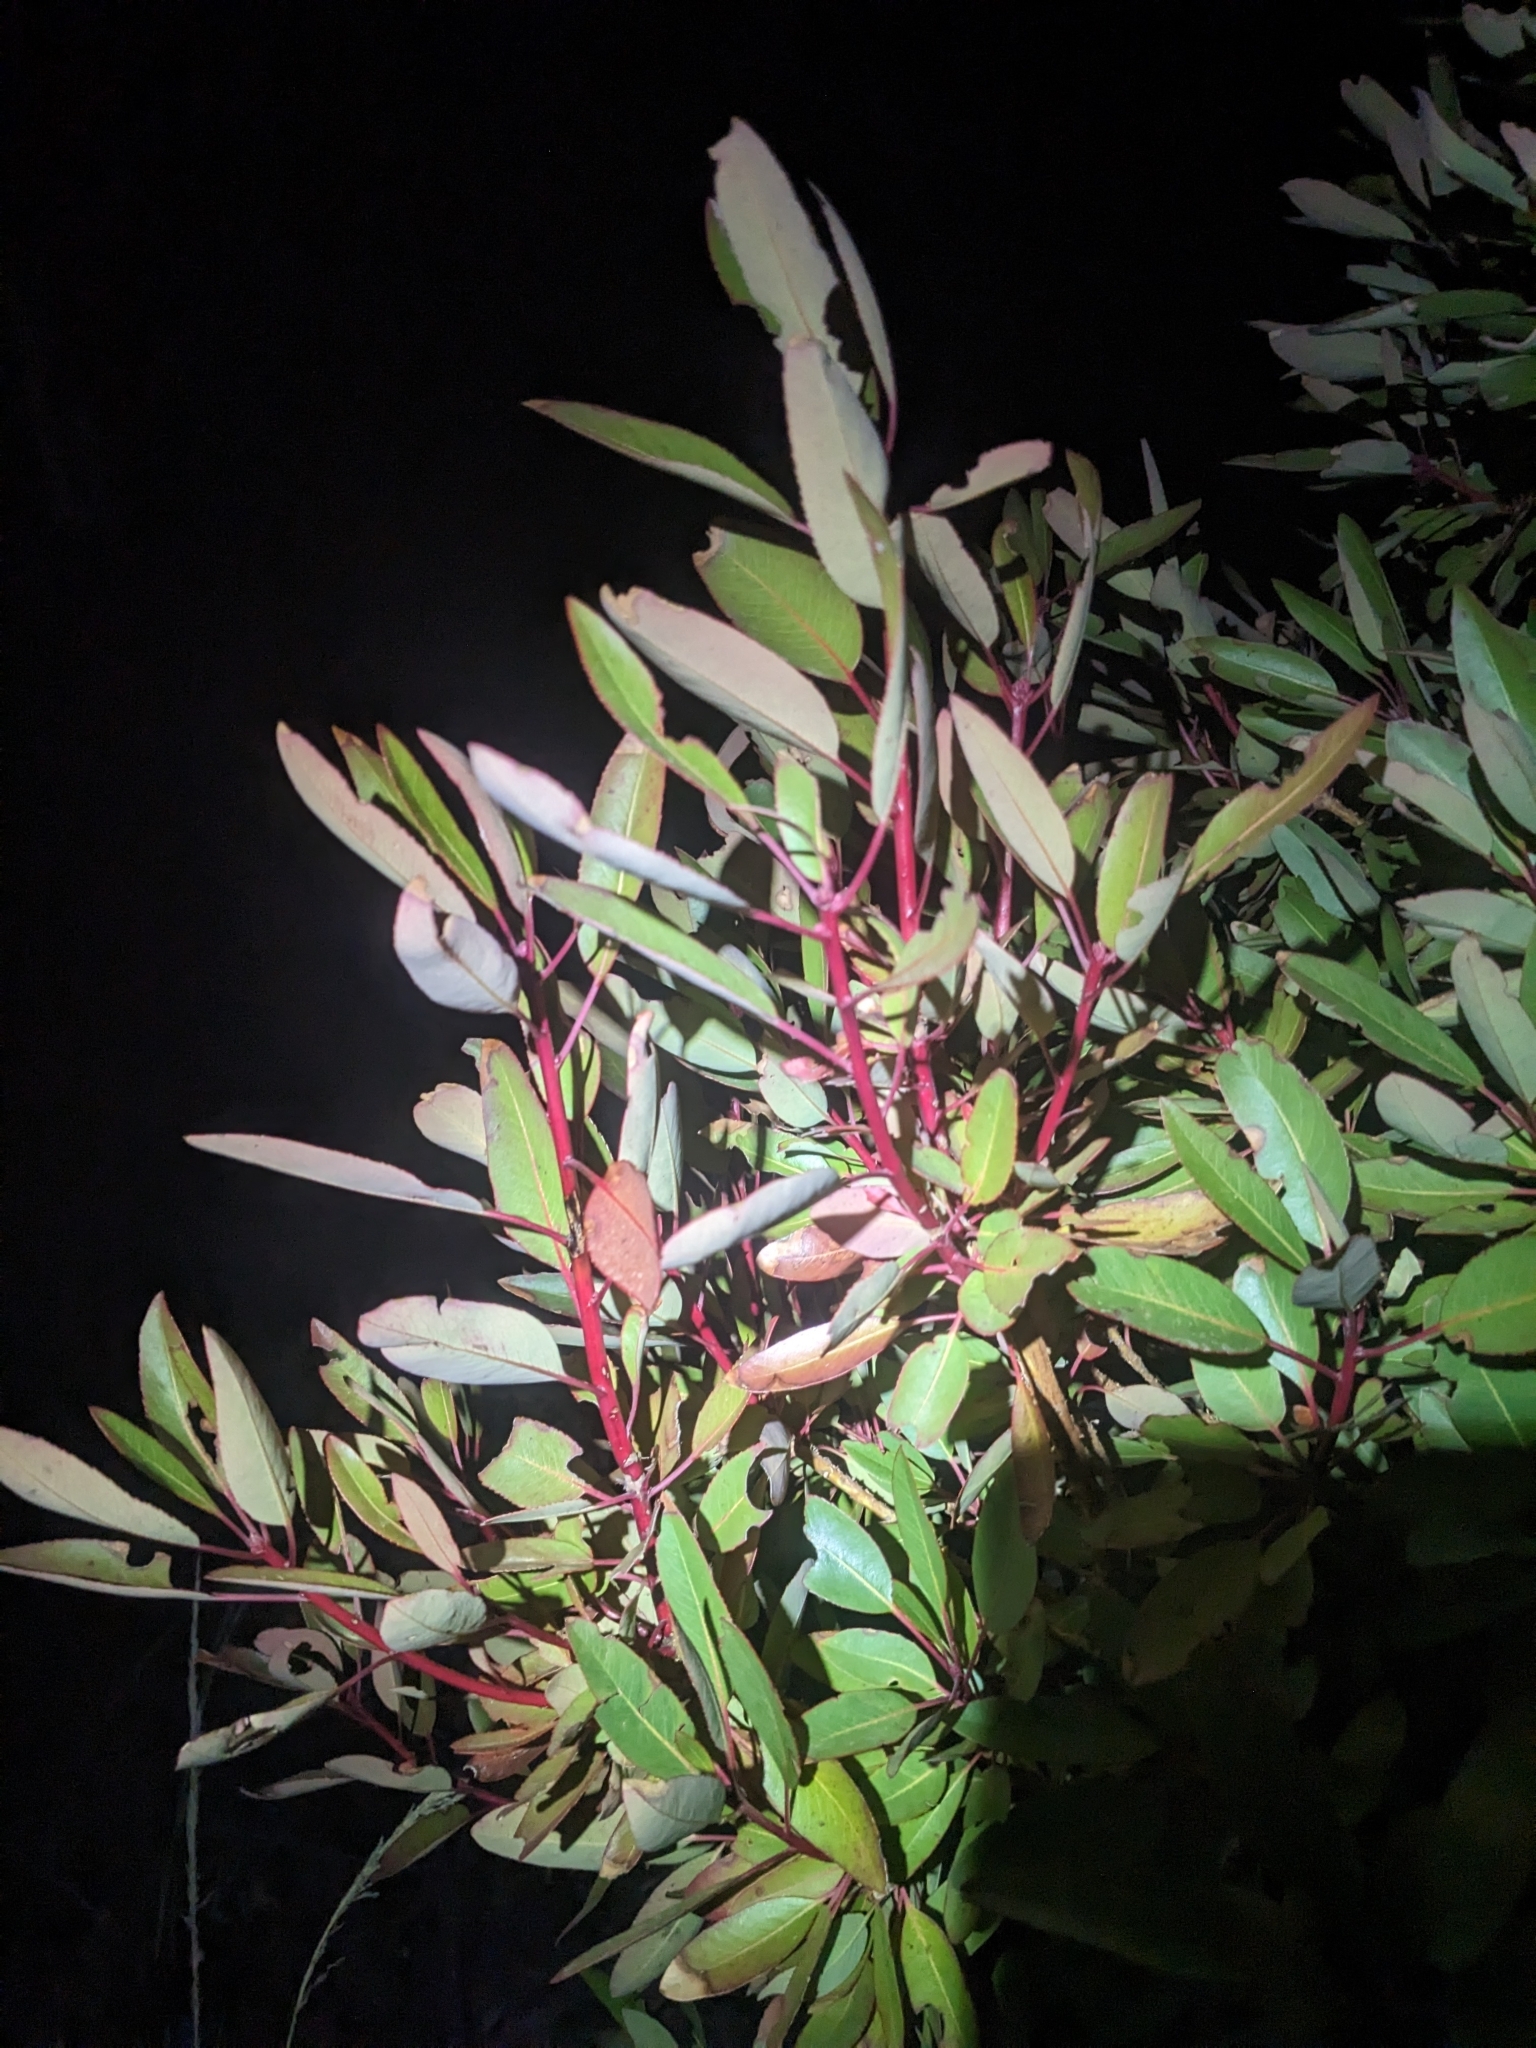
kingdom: Plantae
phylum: Tracheophyta
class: Magnoliopsida
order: Ericales
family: Ericaceae
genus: Arbutus
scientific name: Arbutus arizonica
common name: Arizona madrone
